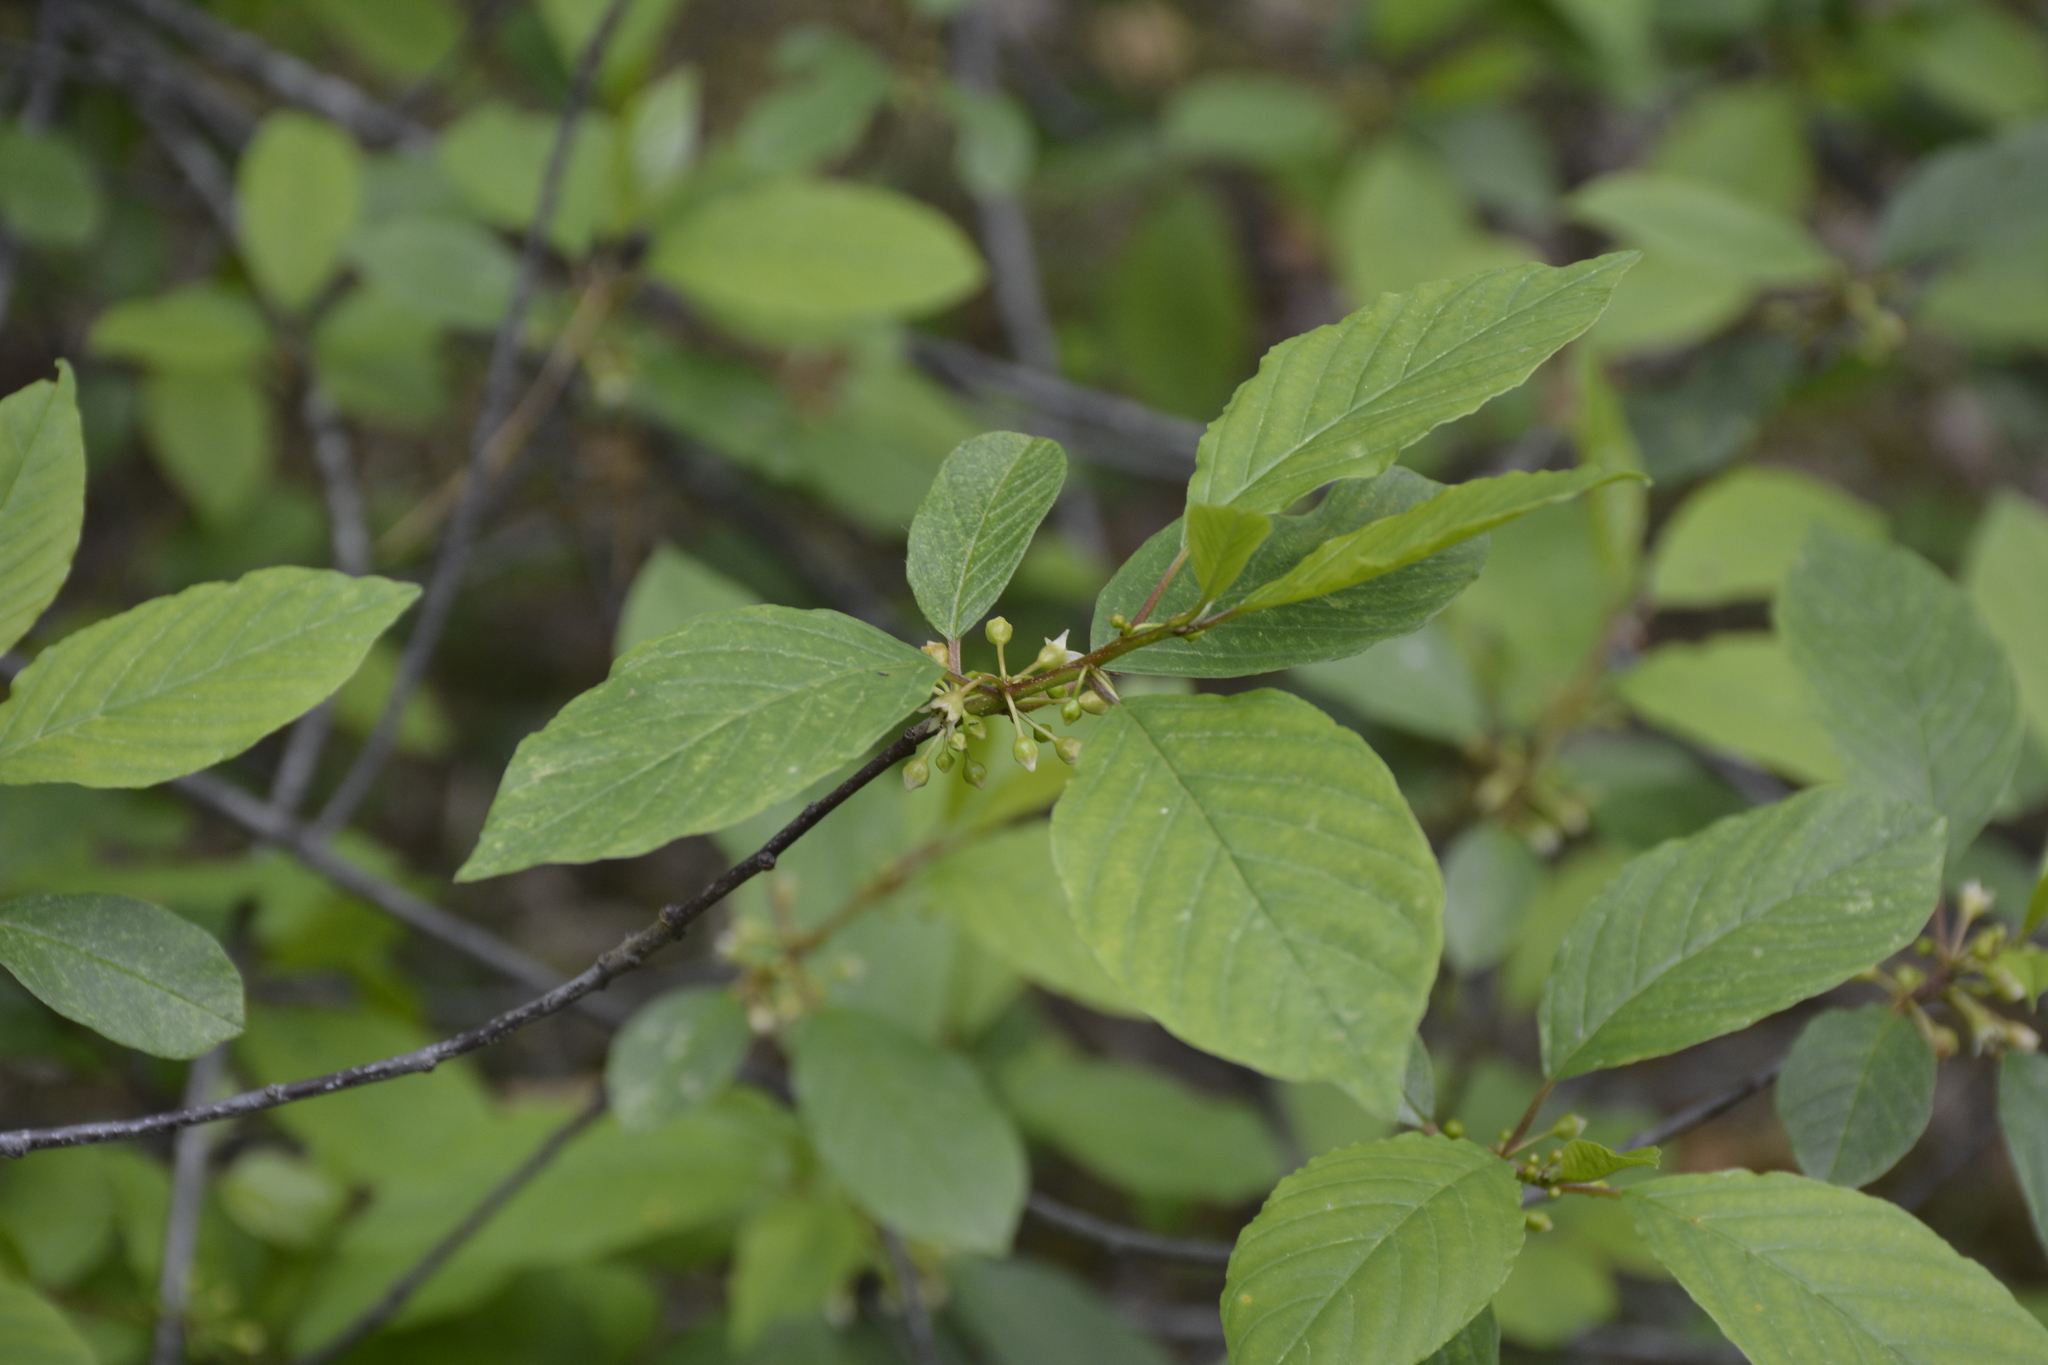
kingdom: Plantae
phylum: Tracheophyta
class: Magnoliopsida
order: Rosales
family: Rhamnaceae
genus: Frangula
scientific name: Frangula alnus
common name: Alder buckthorn
